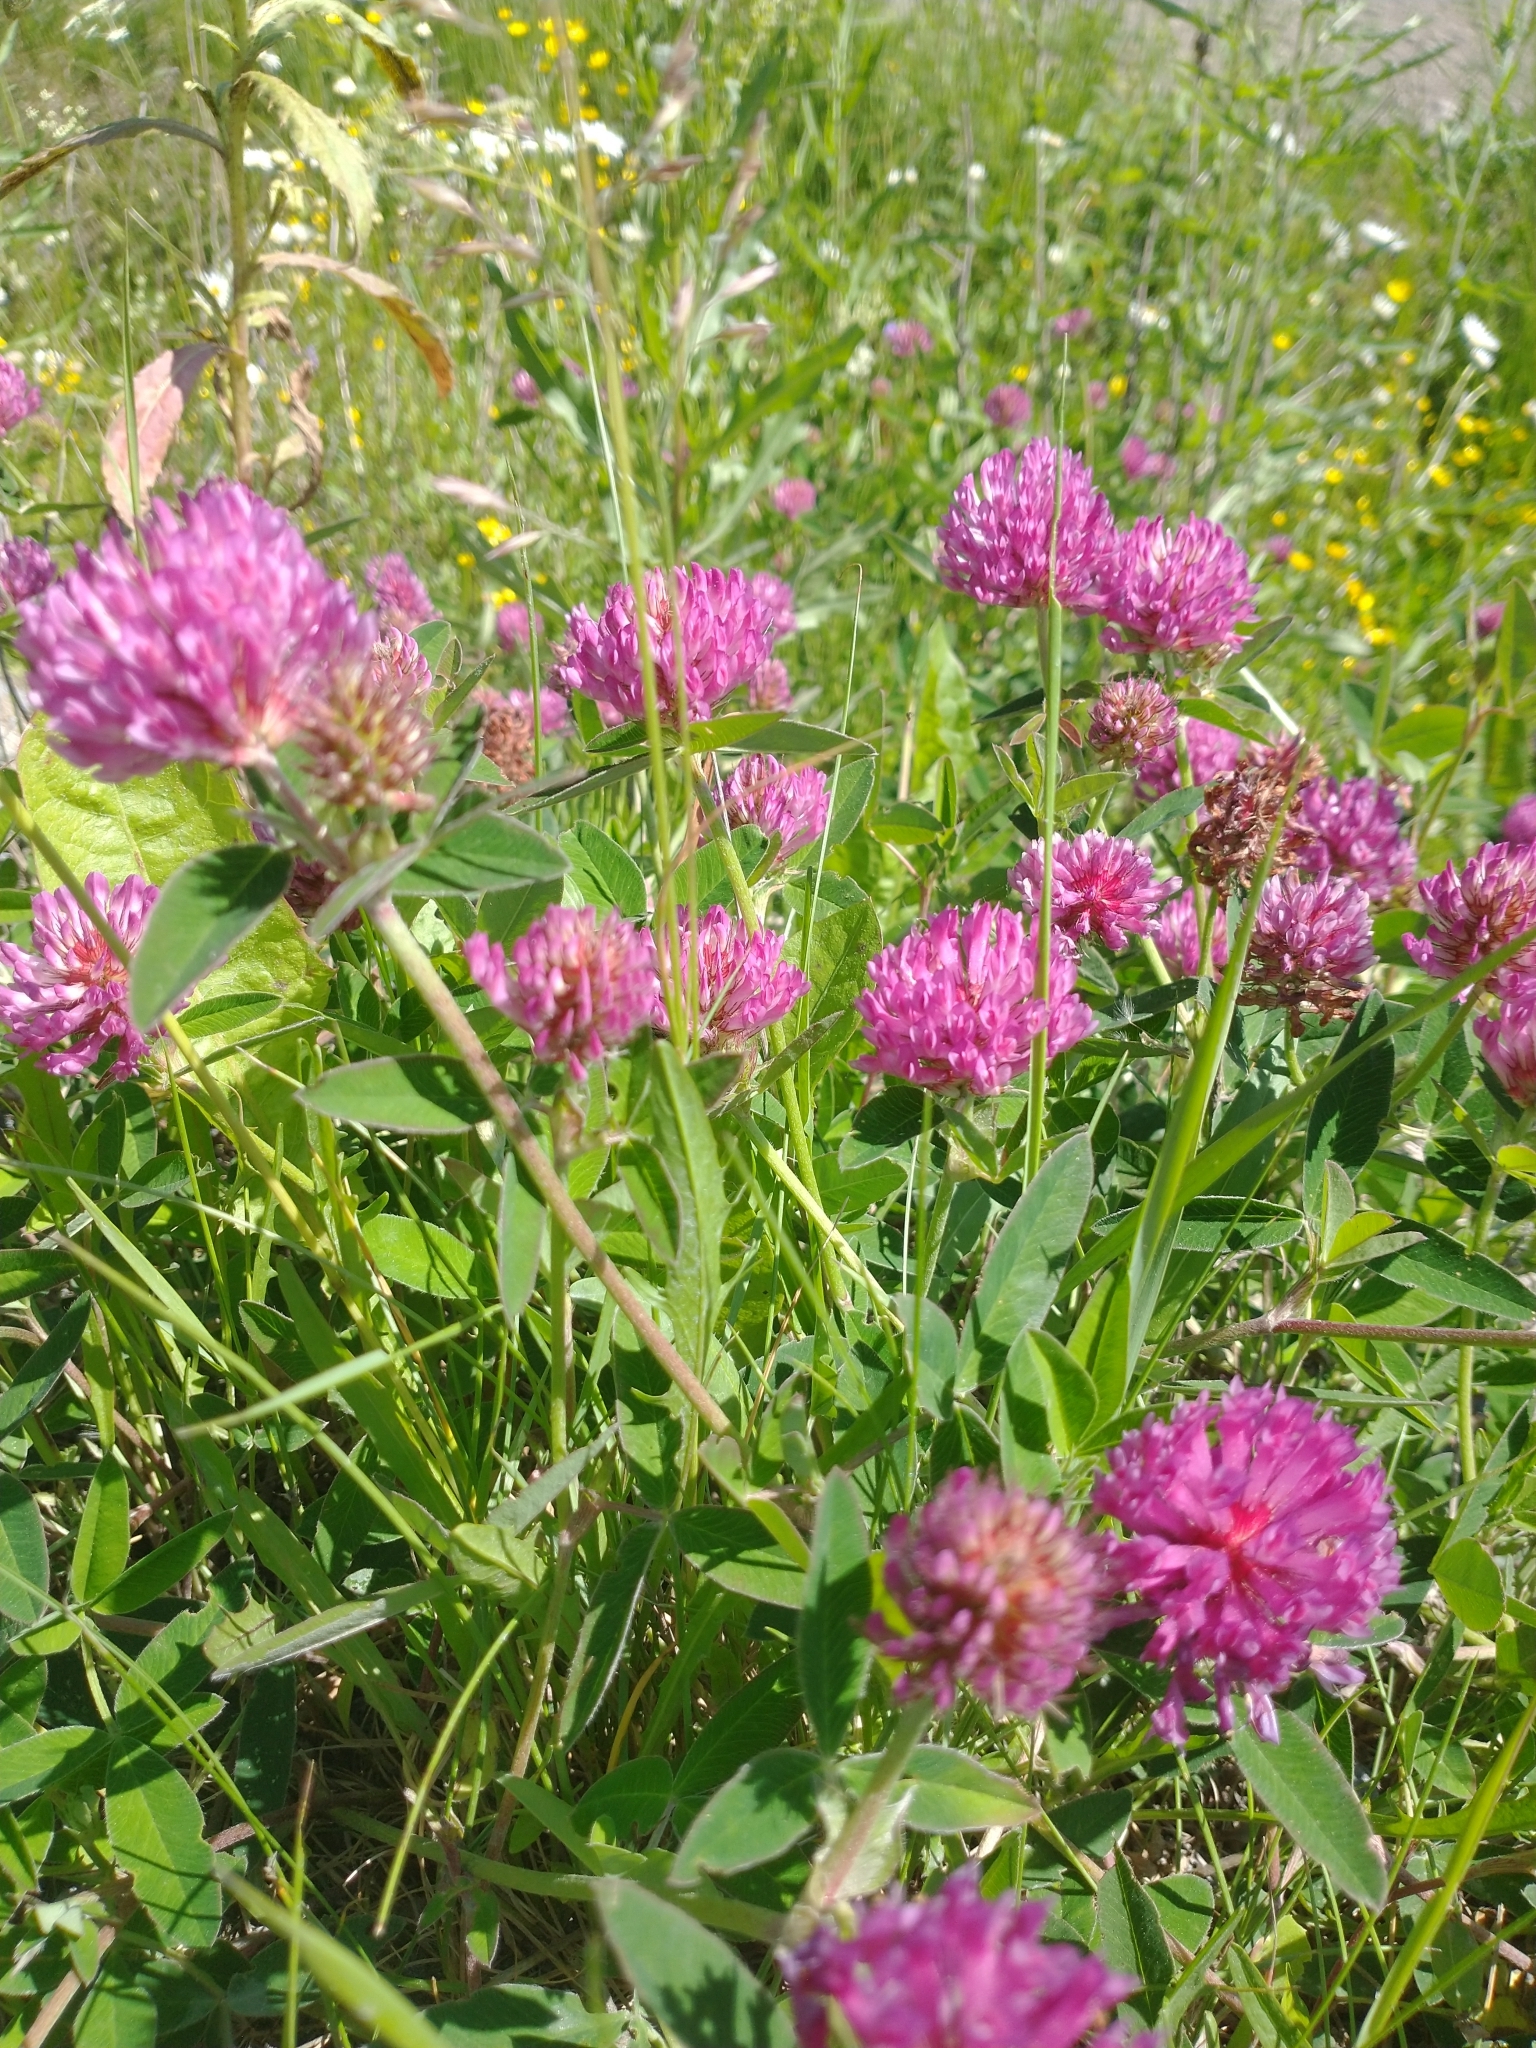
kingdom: Plantae
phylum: Tracheophyta
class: Magnoliopsida
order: Fabales
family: Fabaceae
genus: Trifolium
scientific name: Trifolium medium
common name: Zigzag clover
